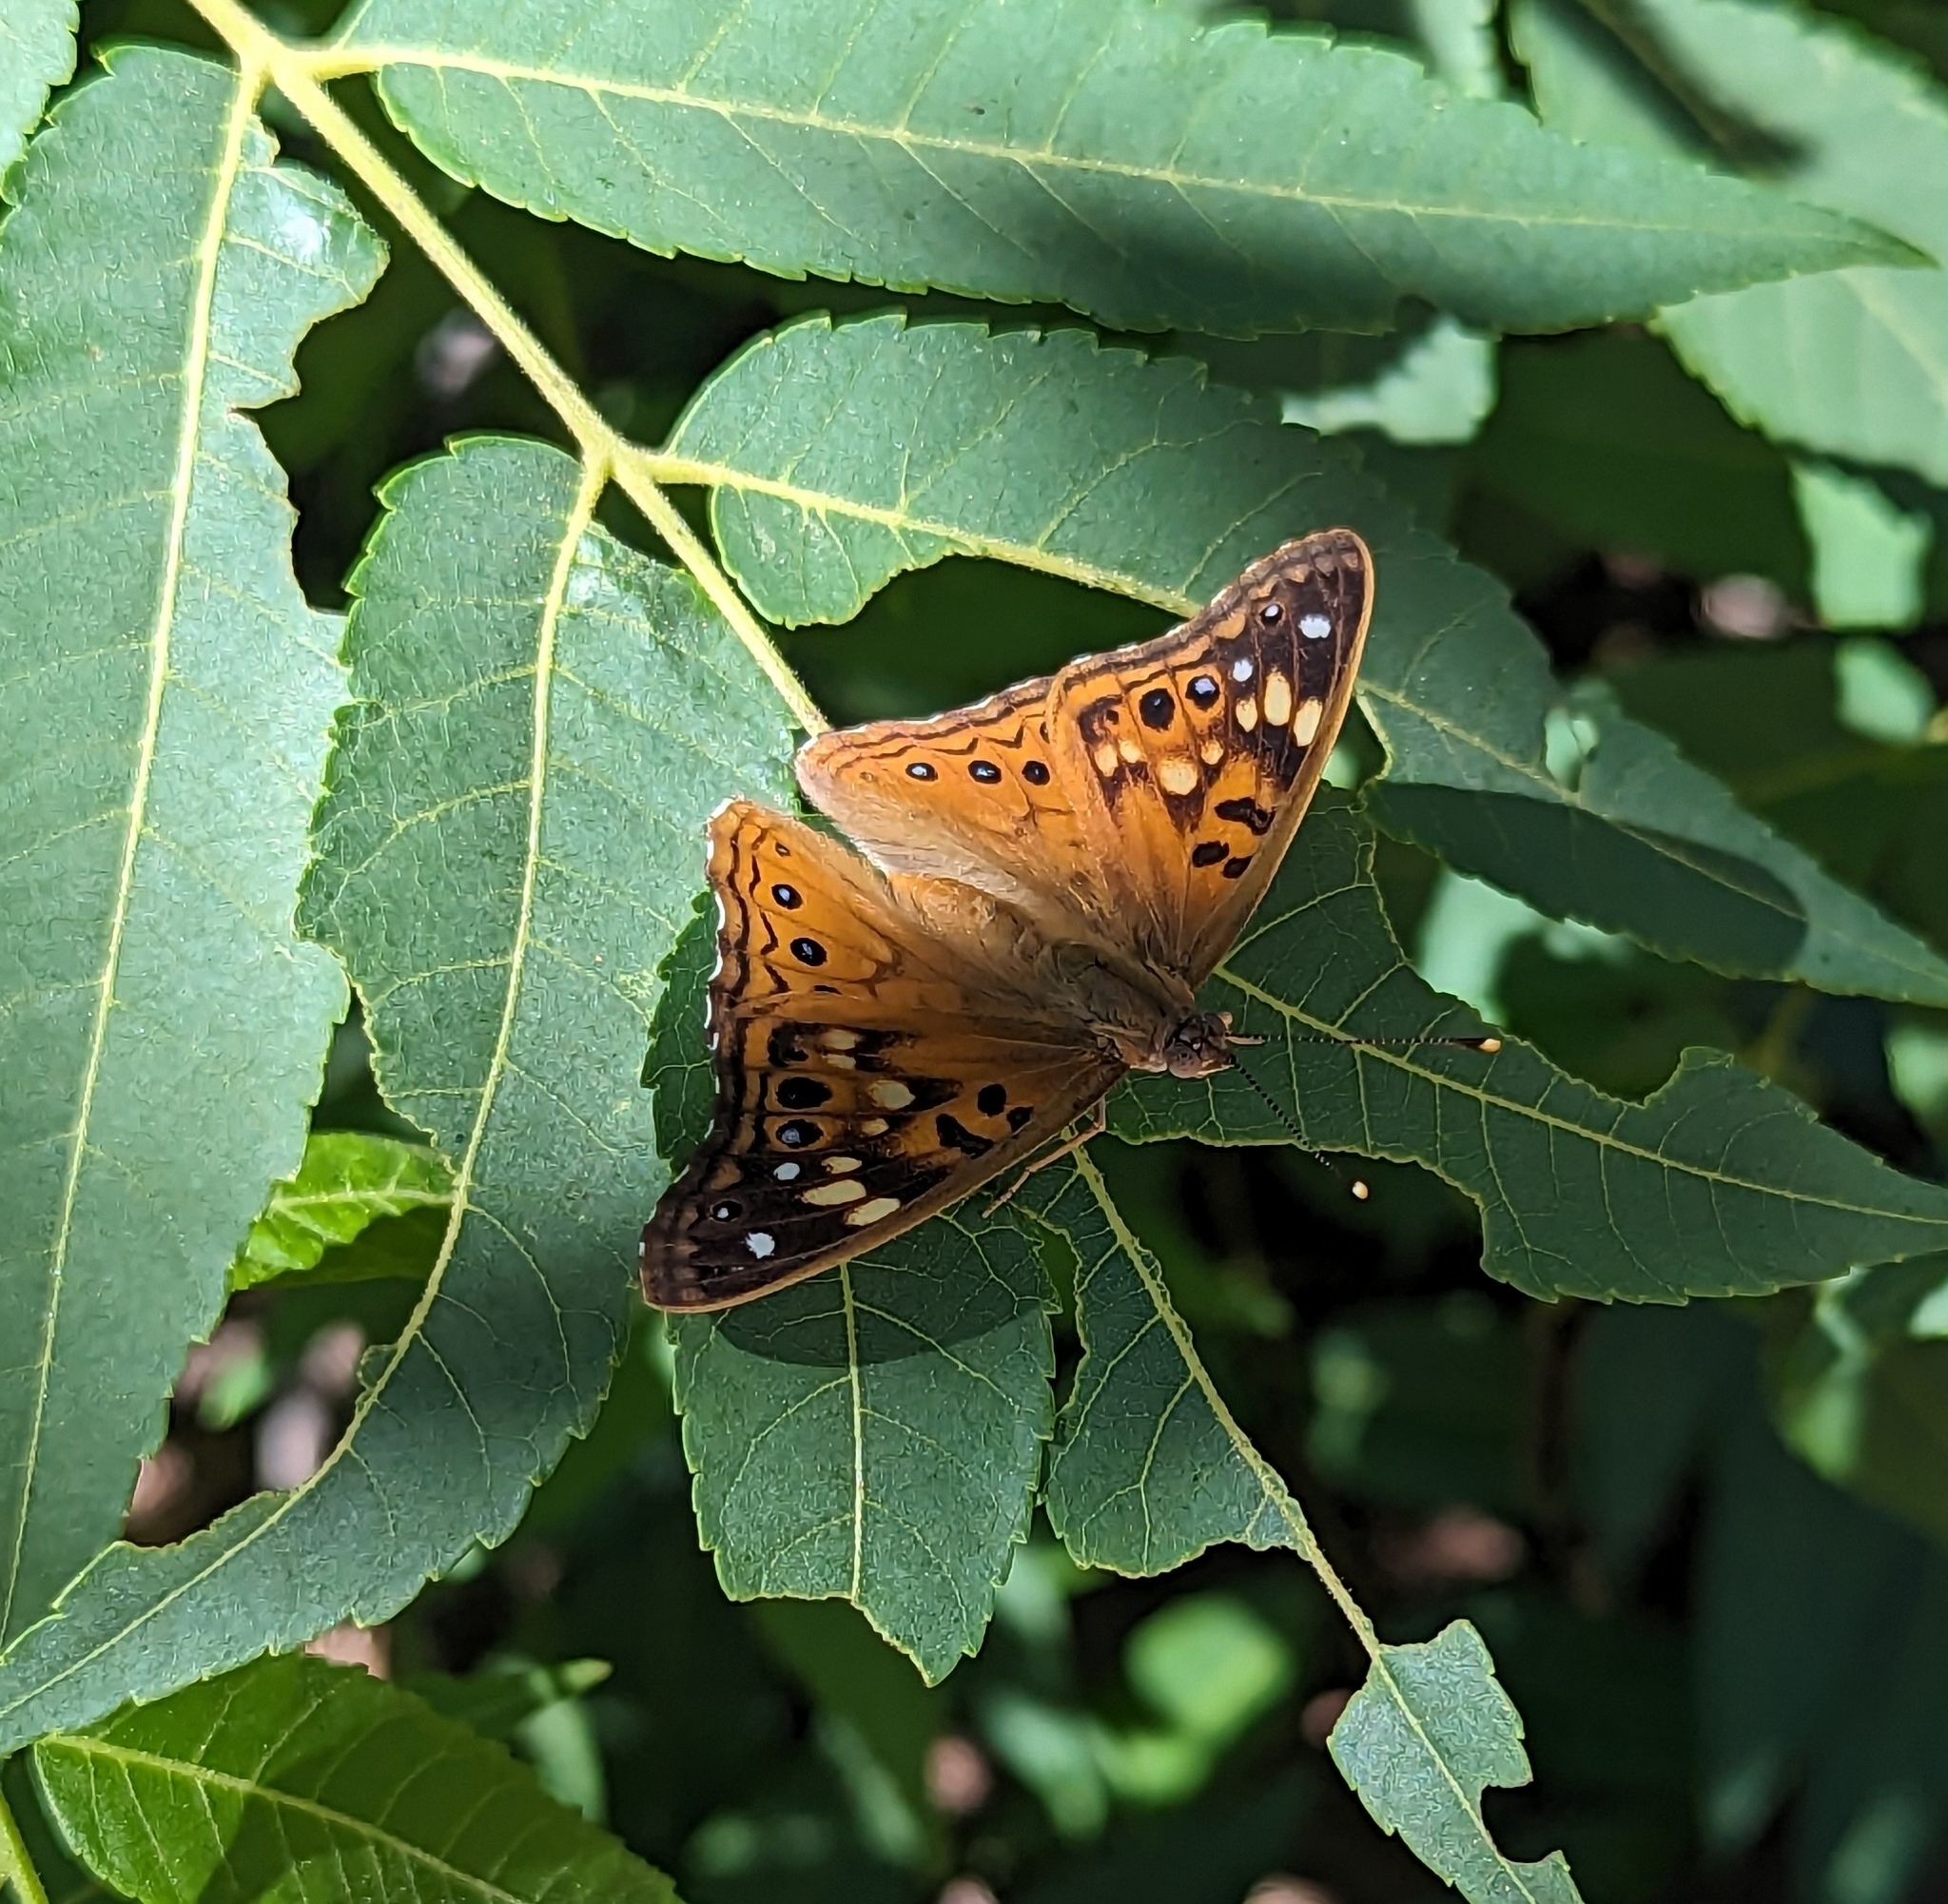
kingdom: Animalia
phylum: Arthropoda
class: Insecta
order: Lepidoptera
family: Nymphalidae
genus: Asterocampa
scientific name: Asterocampa celtis
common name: Hackberry emperor
